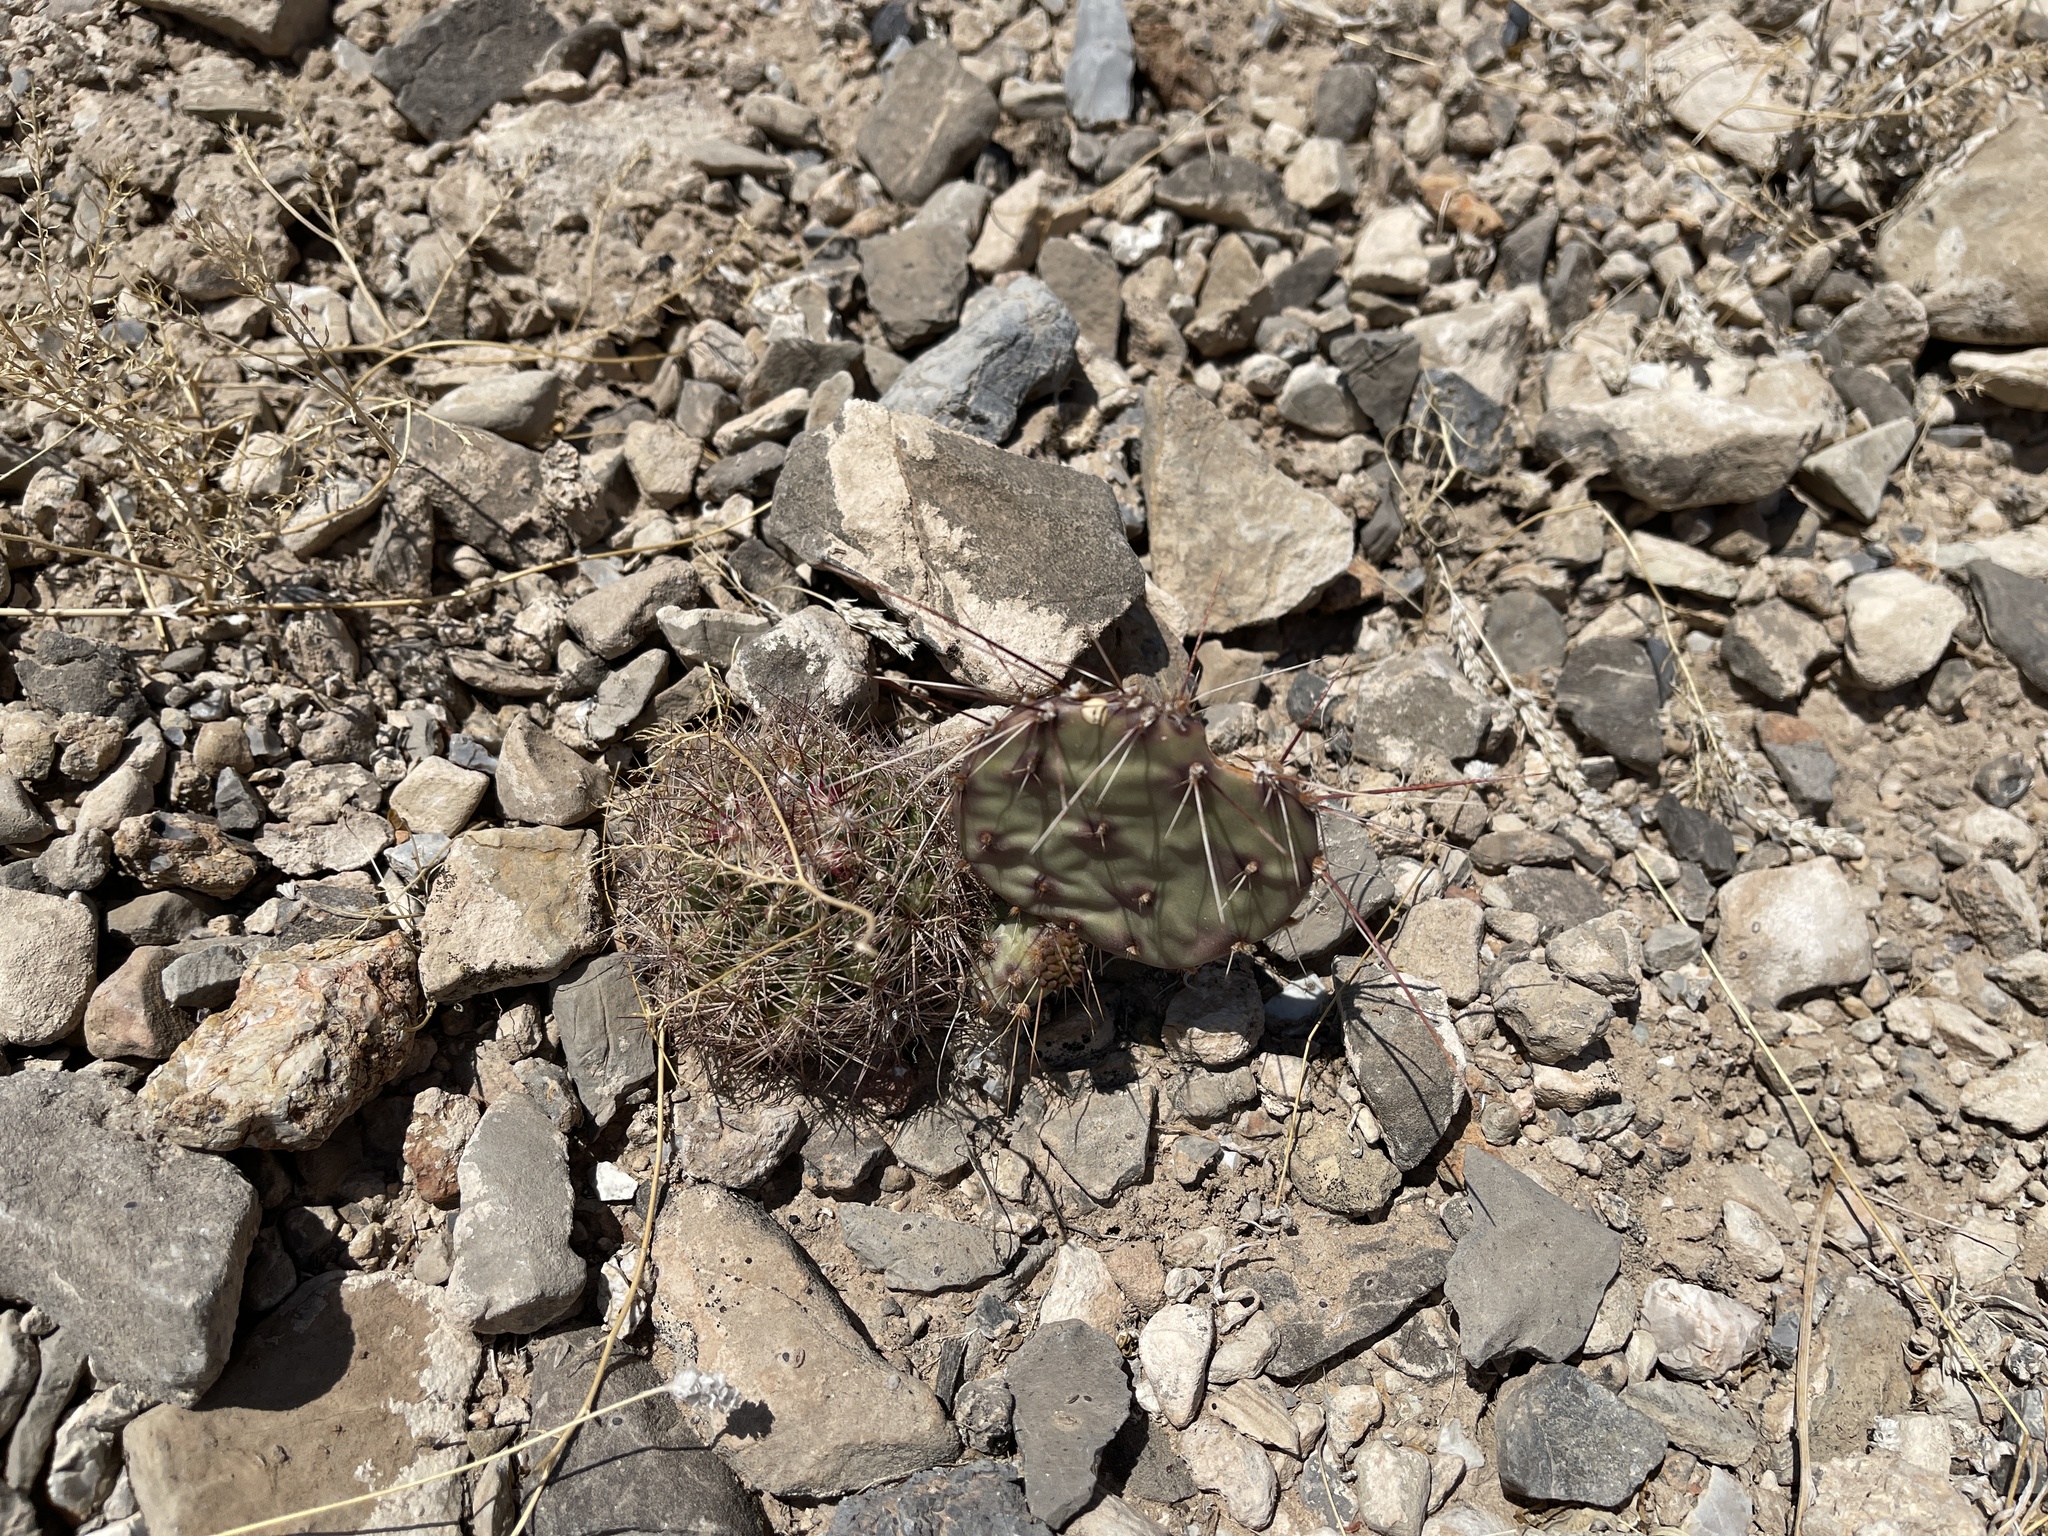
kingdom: Plantae
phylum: Tracheophyta
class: Magnoliopsida
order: Caryophyllales
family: Cactaceae
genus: Sclerocactus
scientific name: Sclerocactus intertextus
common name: White fish-hook cactus
